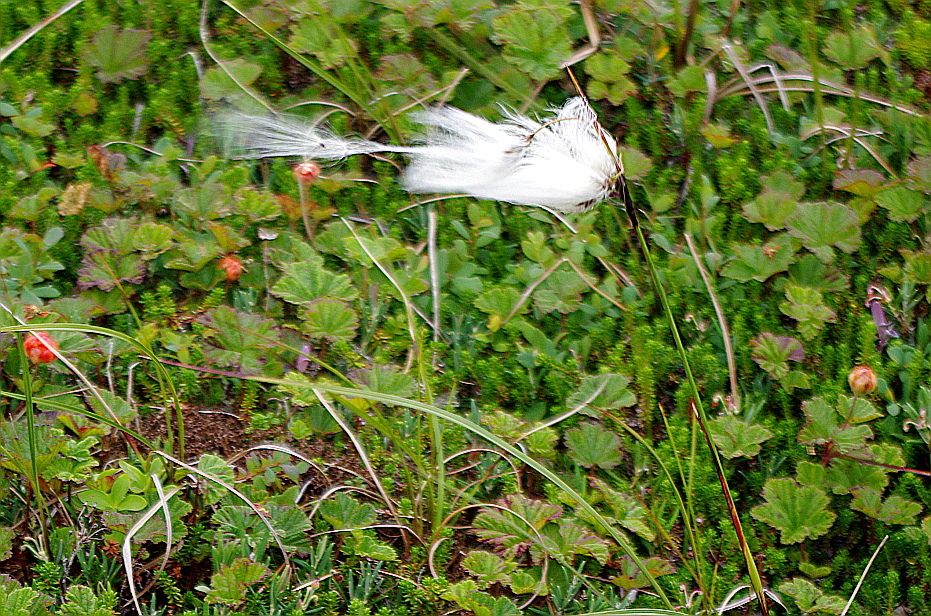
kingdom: Plantae
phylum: Tracheophyta
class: Liliopsida
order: Poales
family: Cyperaceae
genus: Eriophorum
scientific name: Eriophorum angustifolium
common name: Common cottongrass
